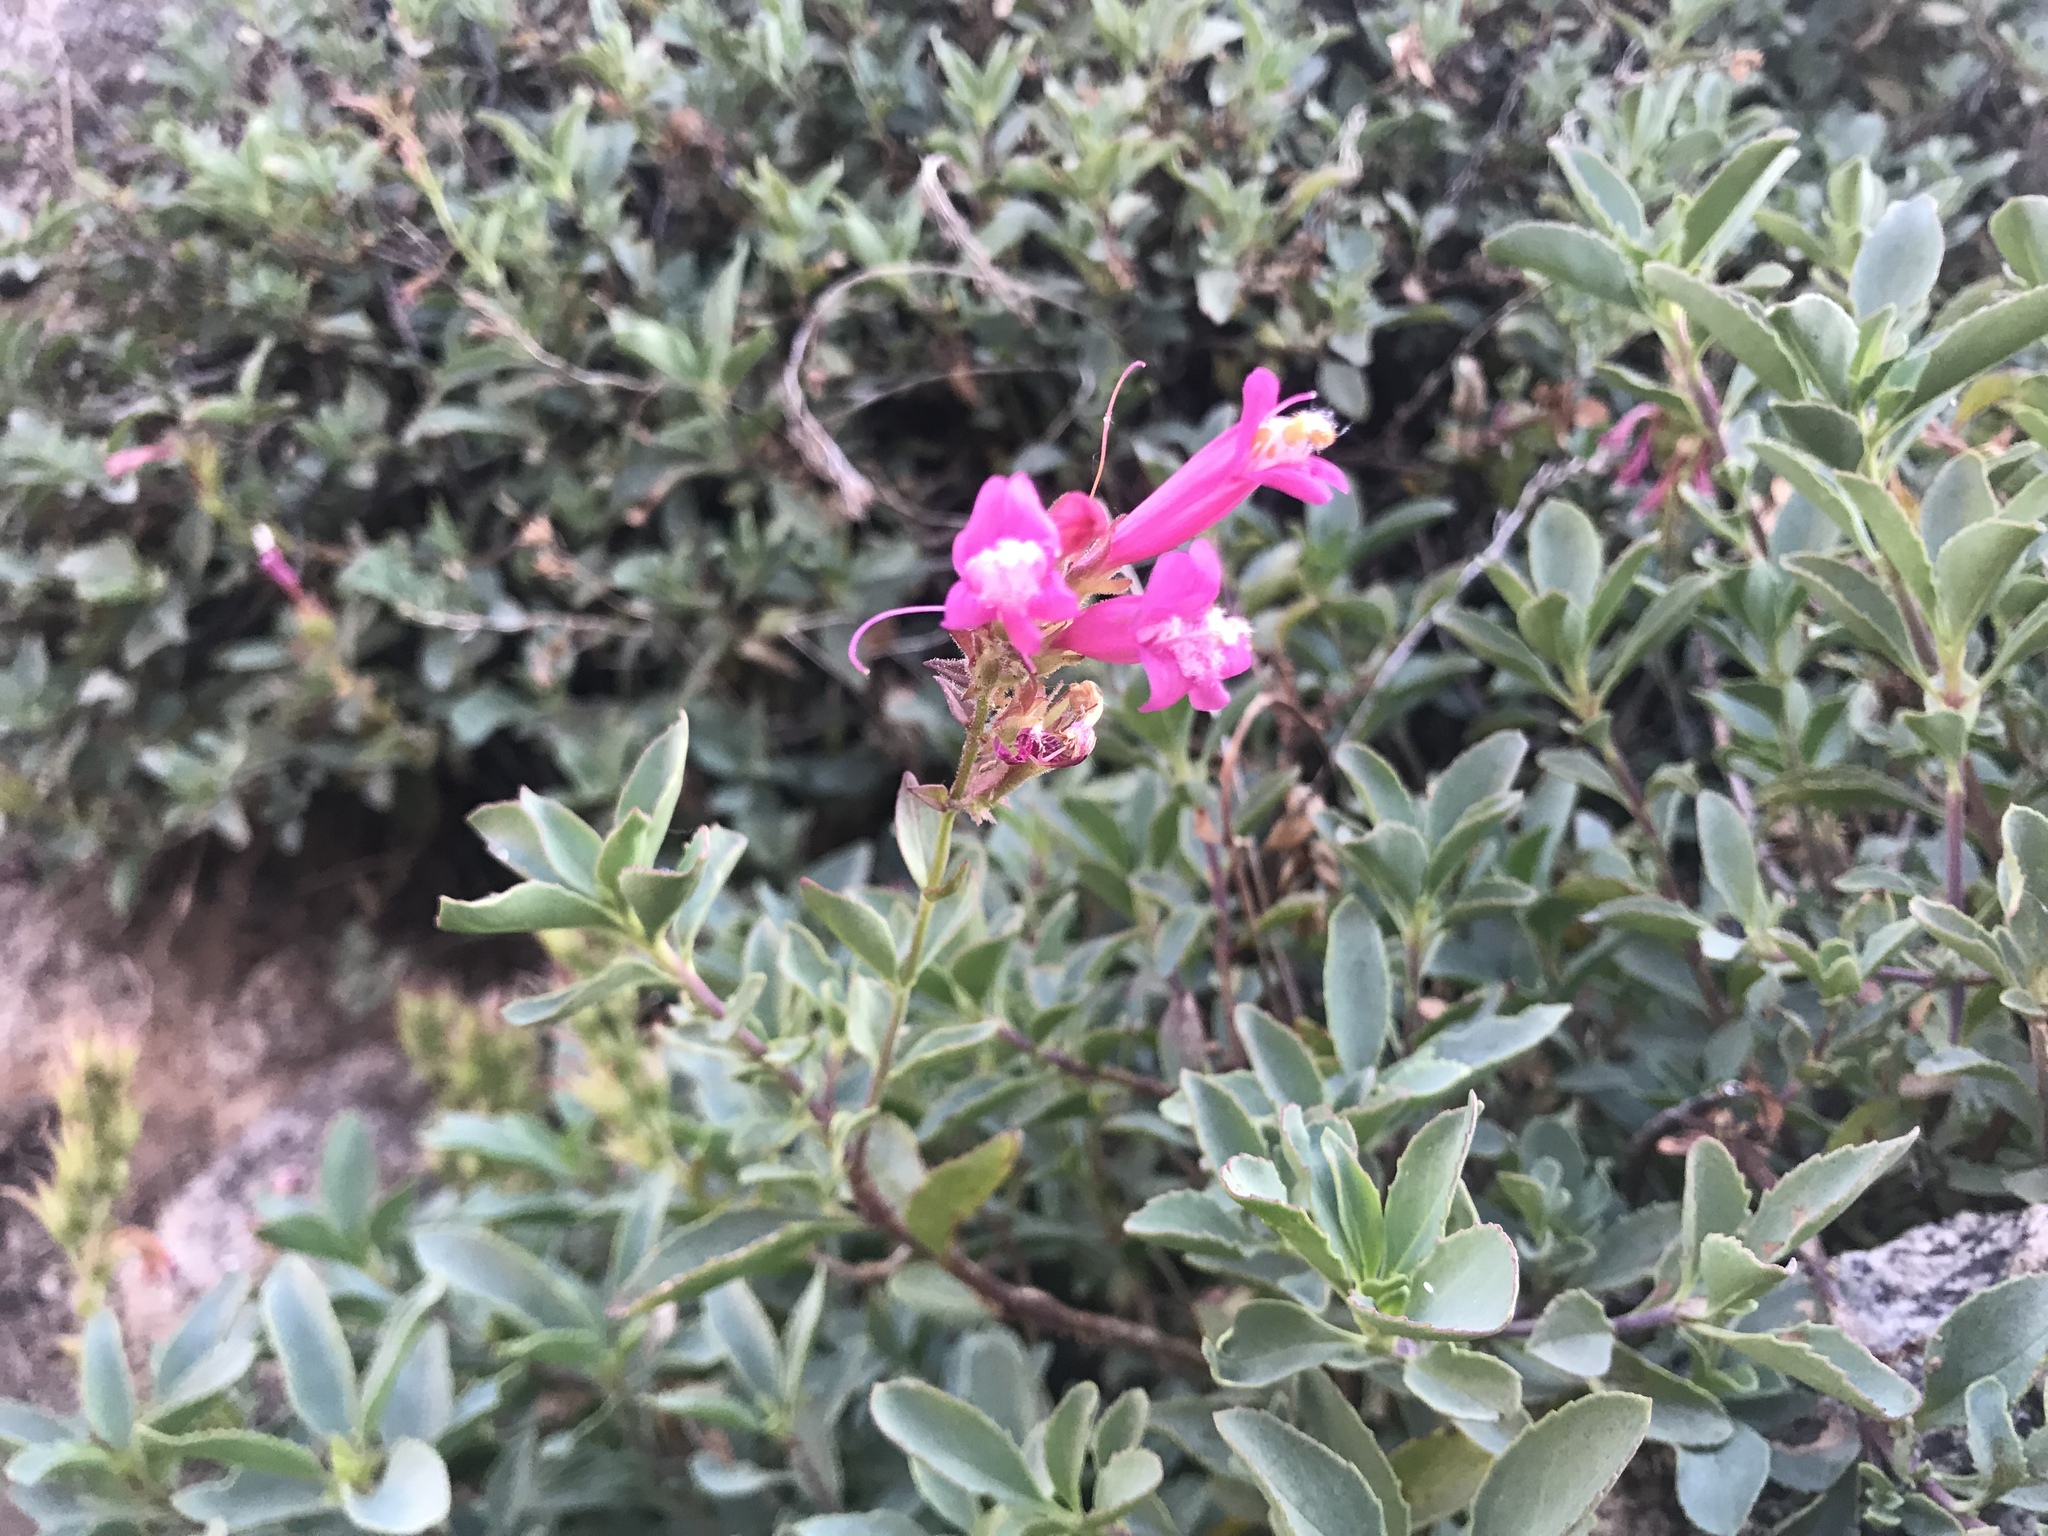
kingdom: Plantae
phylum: Tracheophyta
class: Magnoliopsida
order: Lamiales
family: Plantaginaceae
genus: Penstemon
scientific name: Penstemon newberryi
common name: Mountain-pride
